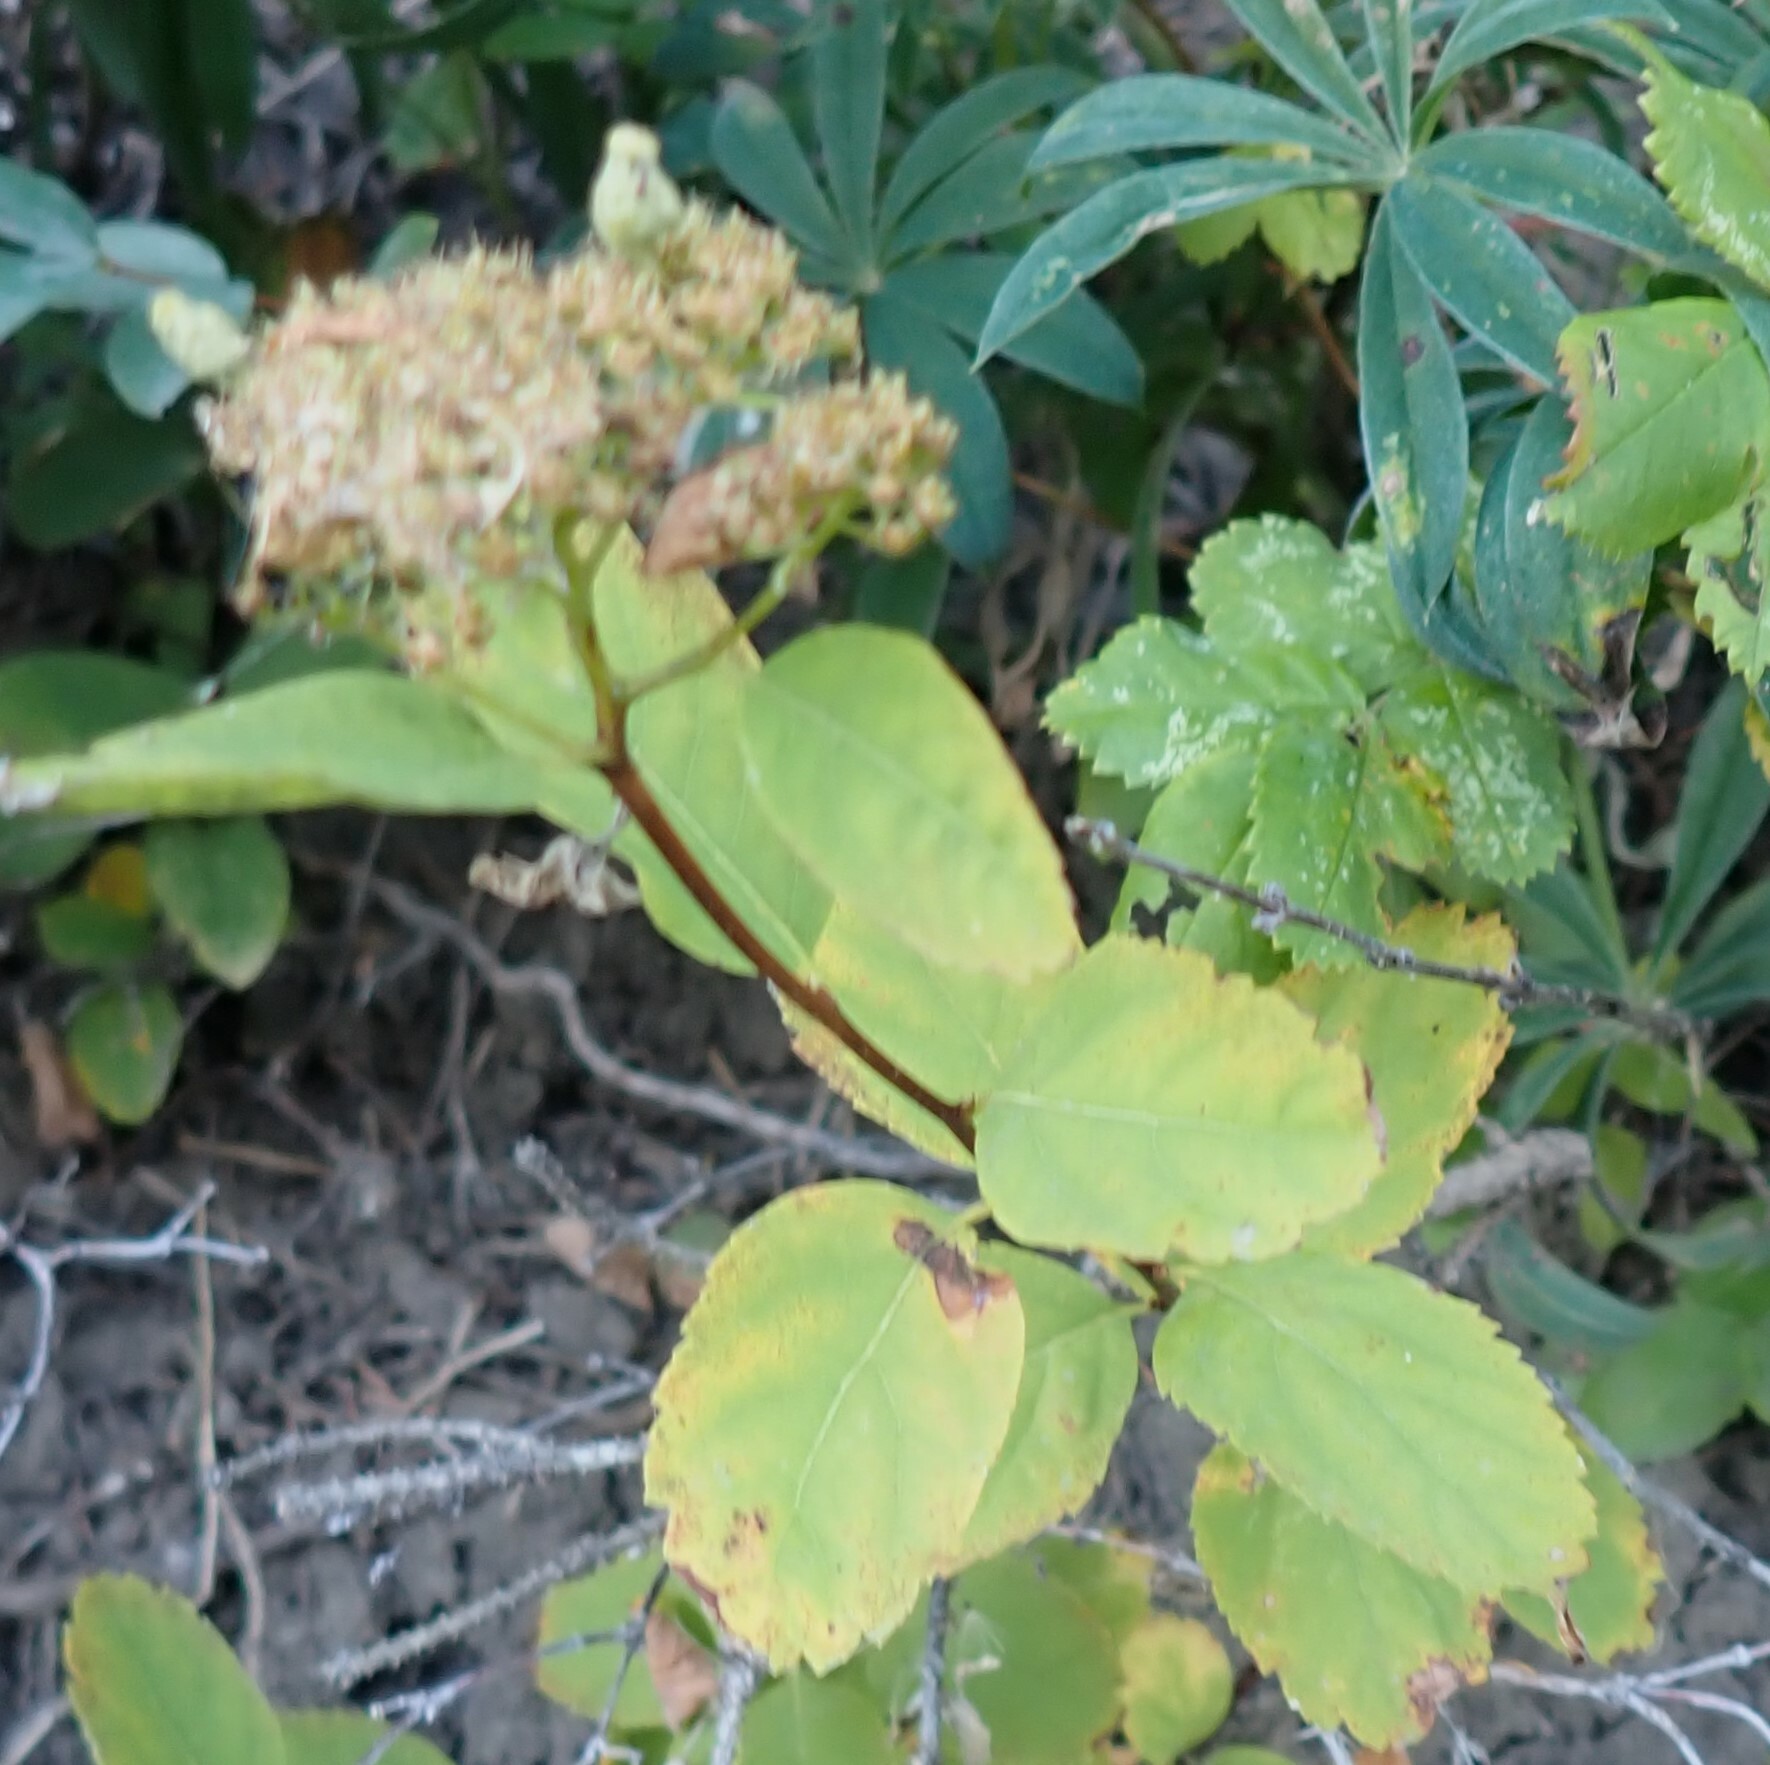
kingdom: Plantae
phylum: Tracheophyta
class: Magnoliopsida
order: Rosales
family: Rosaceae
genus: Spiraea
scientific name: Spiraea lucida
